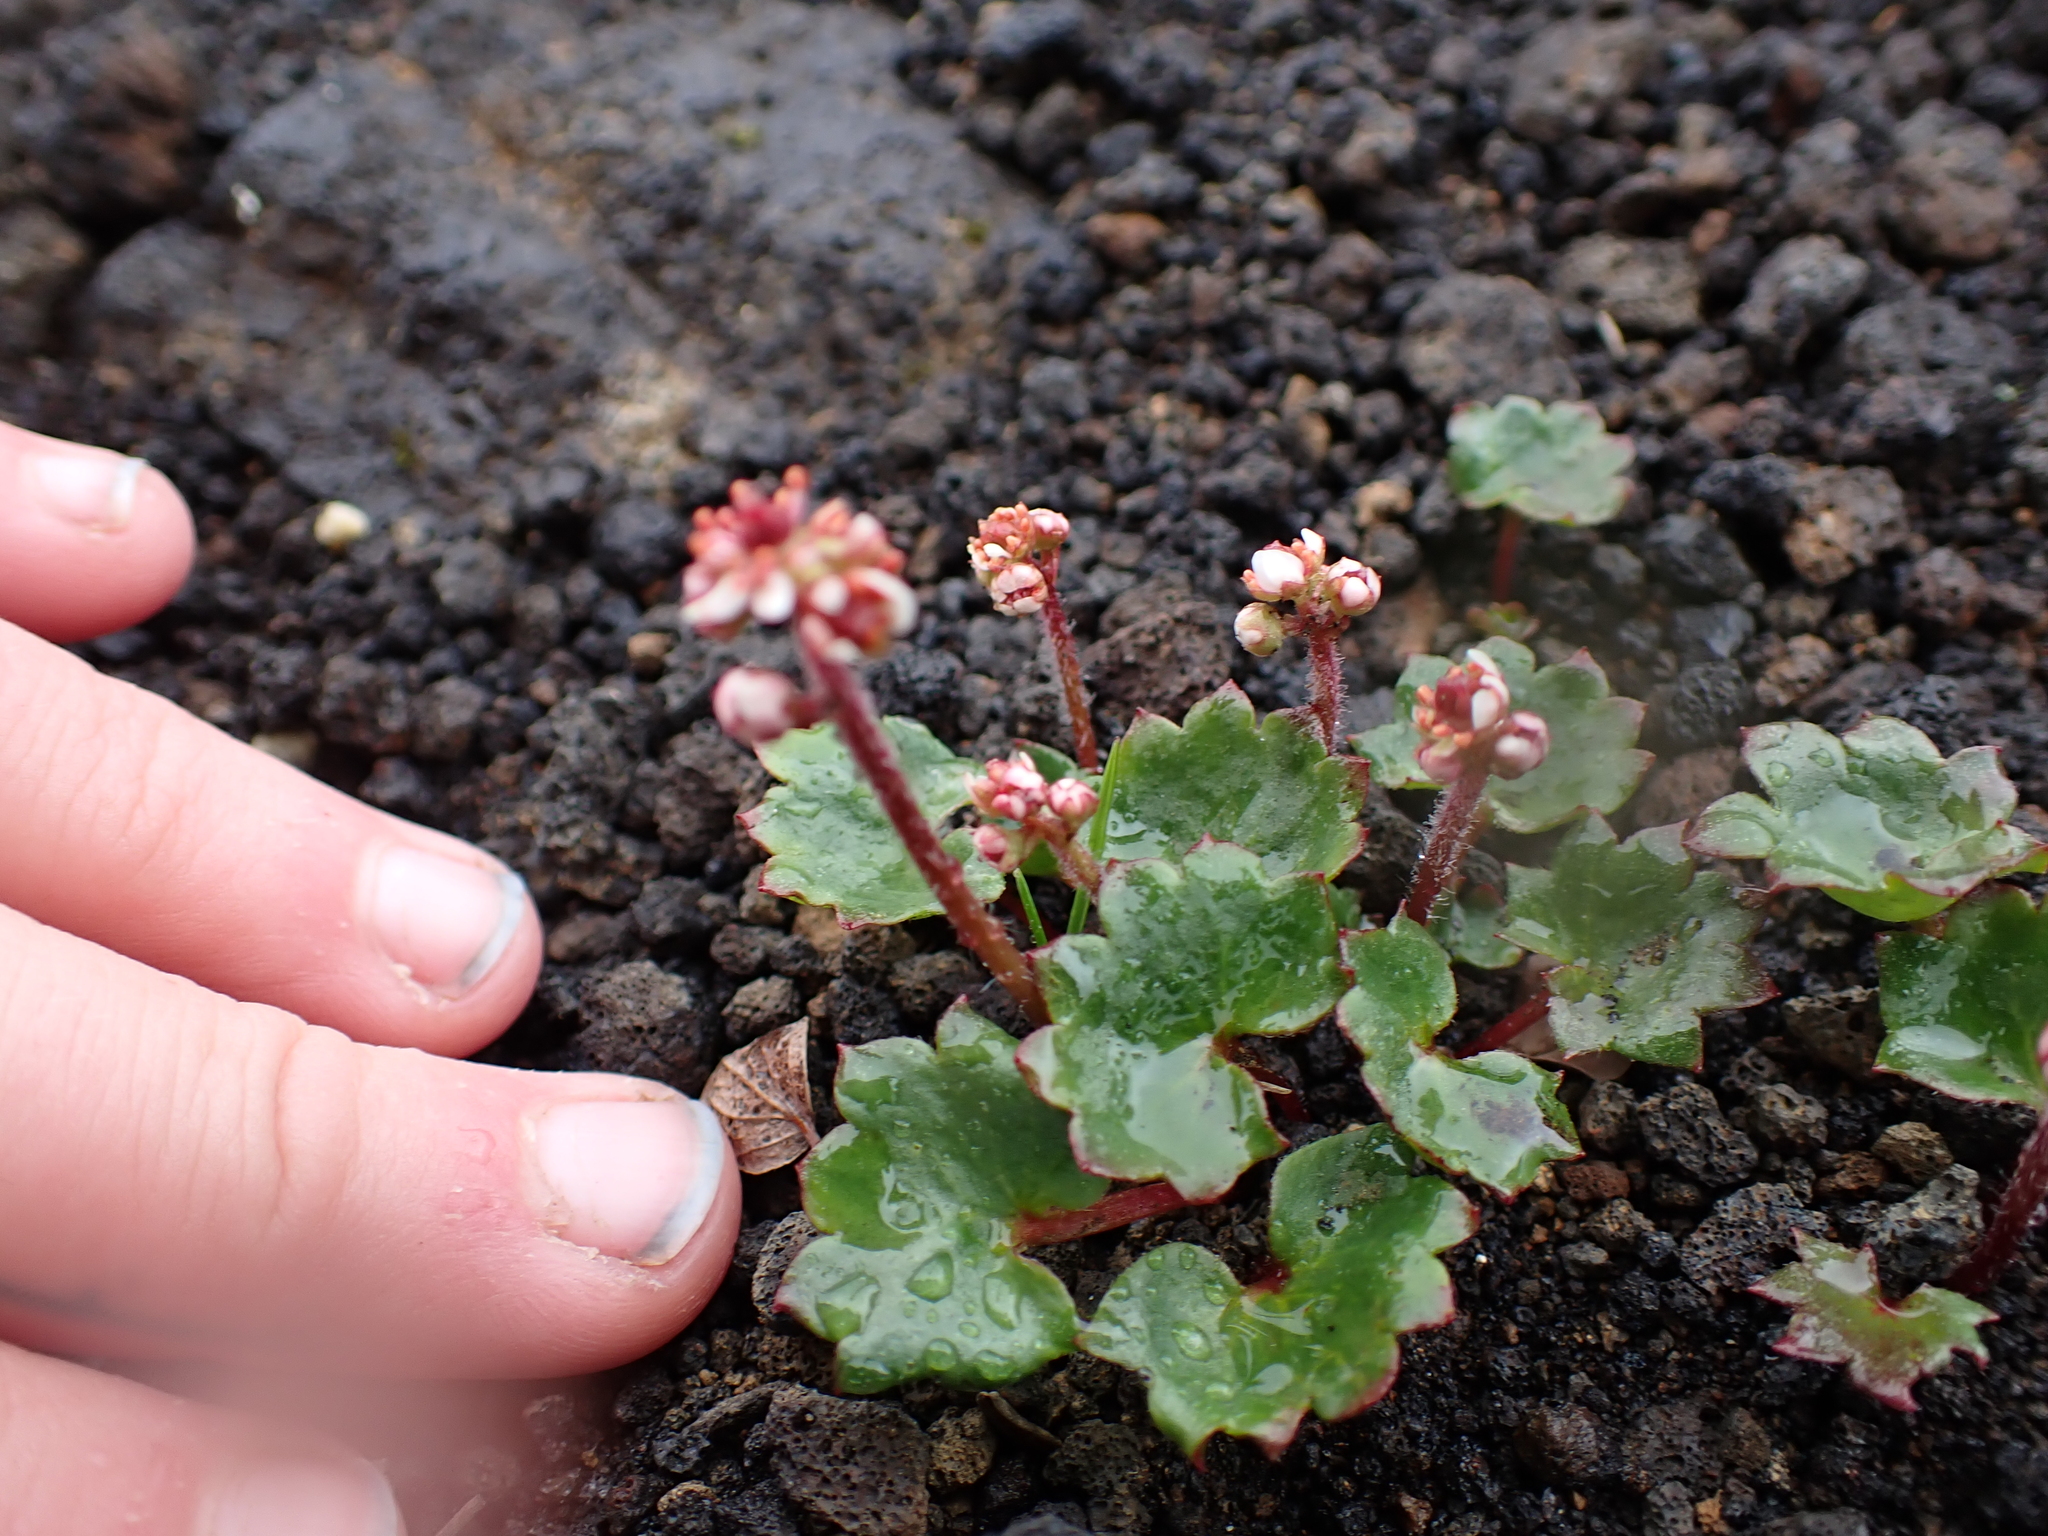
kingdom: Plantae
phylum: Tracheophyta
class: Magnoliopsida
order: Saxifragales
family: Saxifragaceae
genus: Micranthes
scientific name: Micranthes nelsoniana
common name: Nelson's saxifrage
